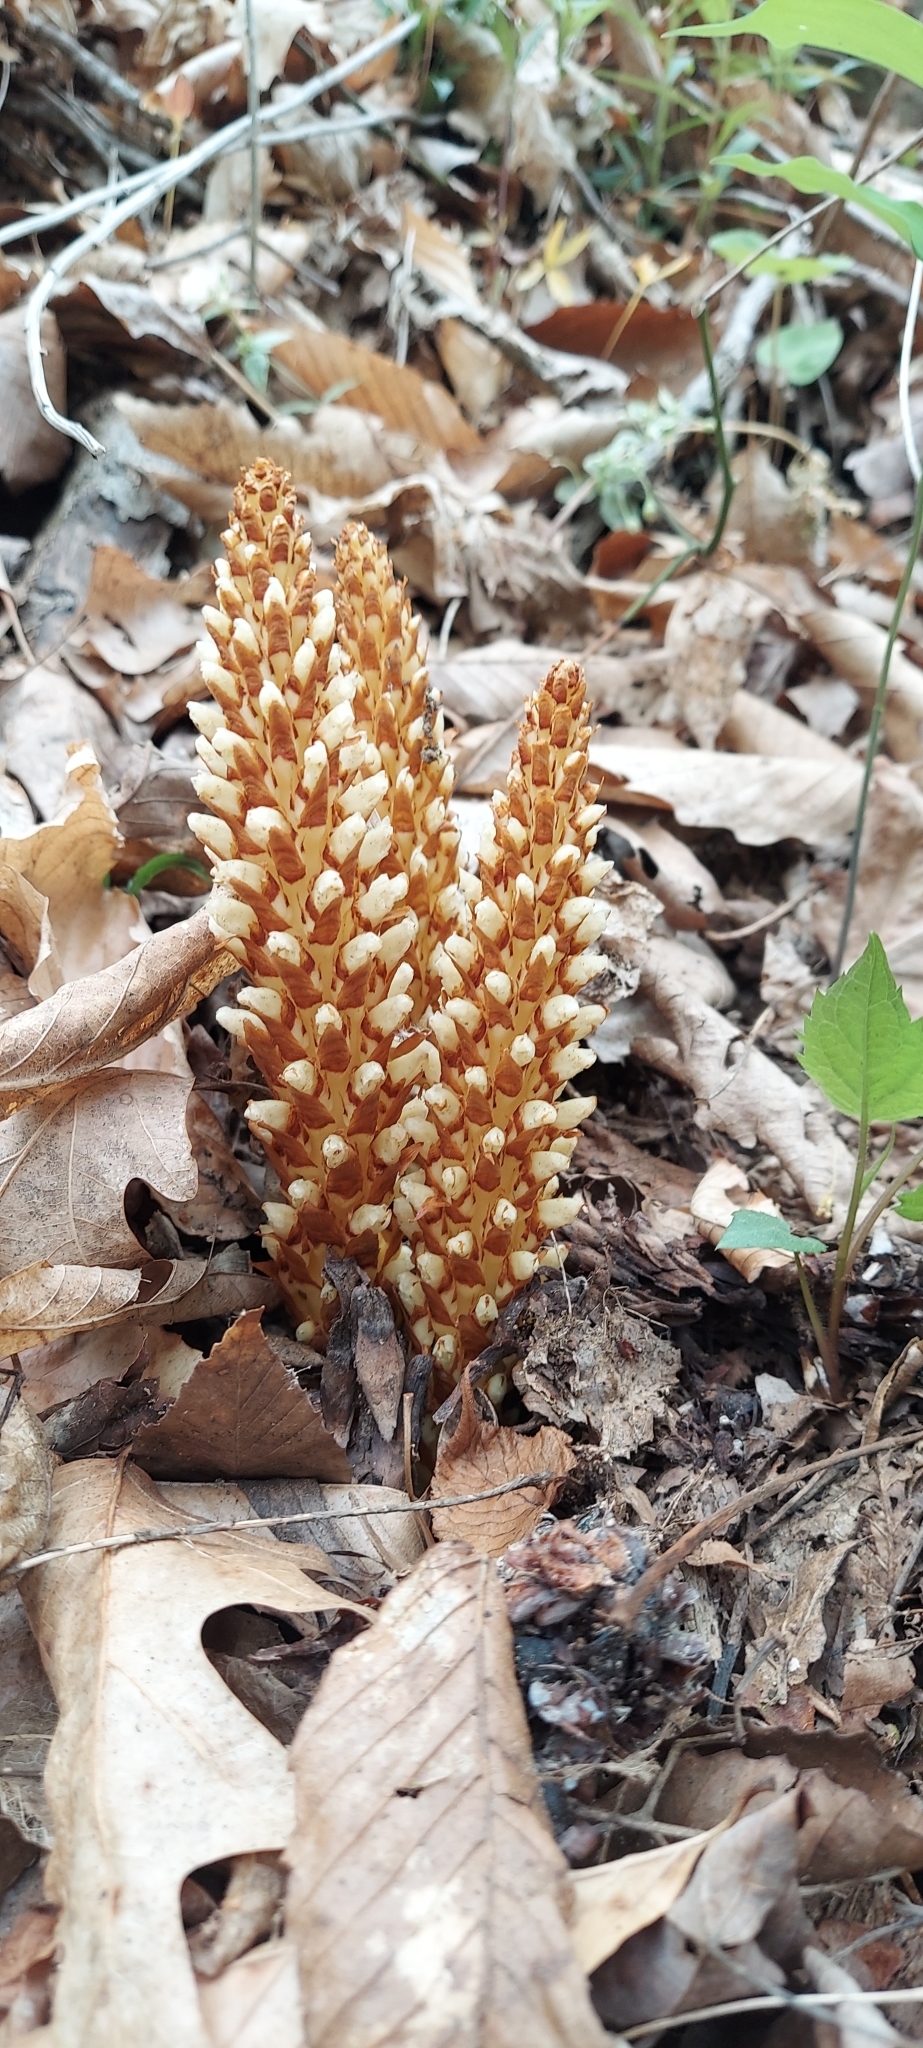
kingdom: Plantae
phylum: Tracheophyta
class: Magnoliopsida
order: Lamiales
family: Orobanchaceae
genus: Conopholis
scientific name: Conopholis americana
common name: American cancer-root
